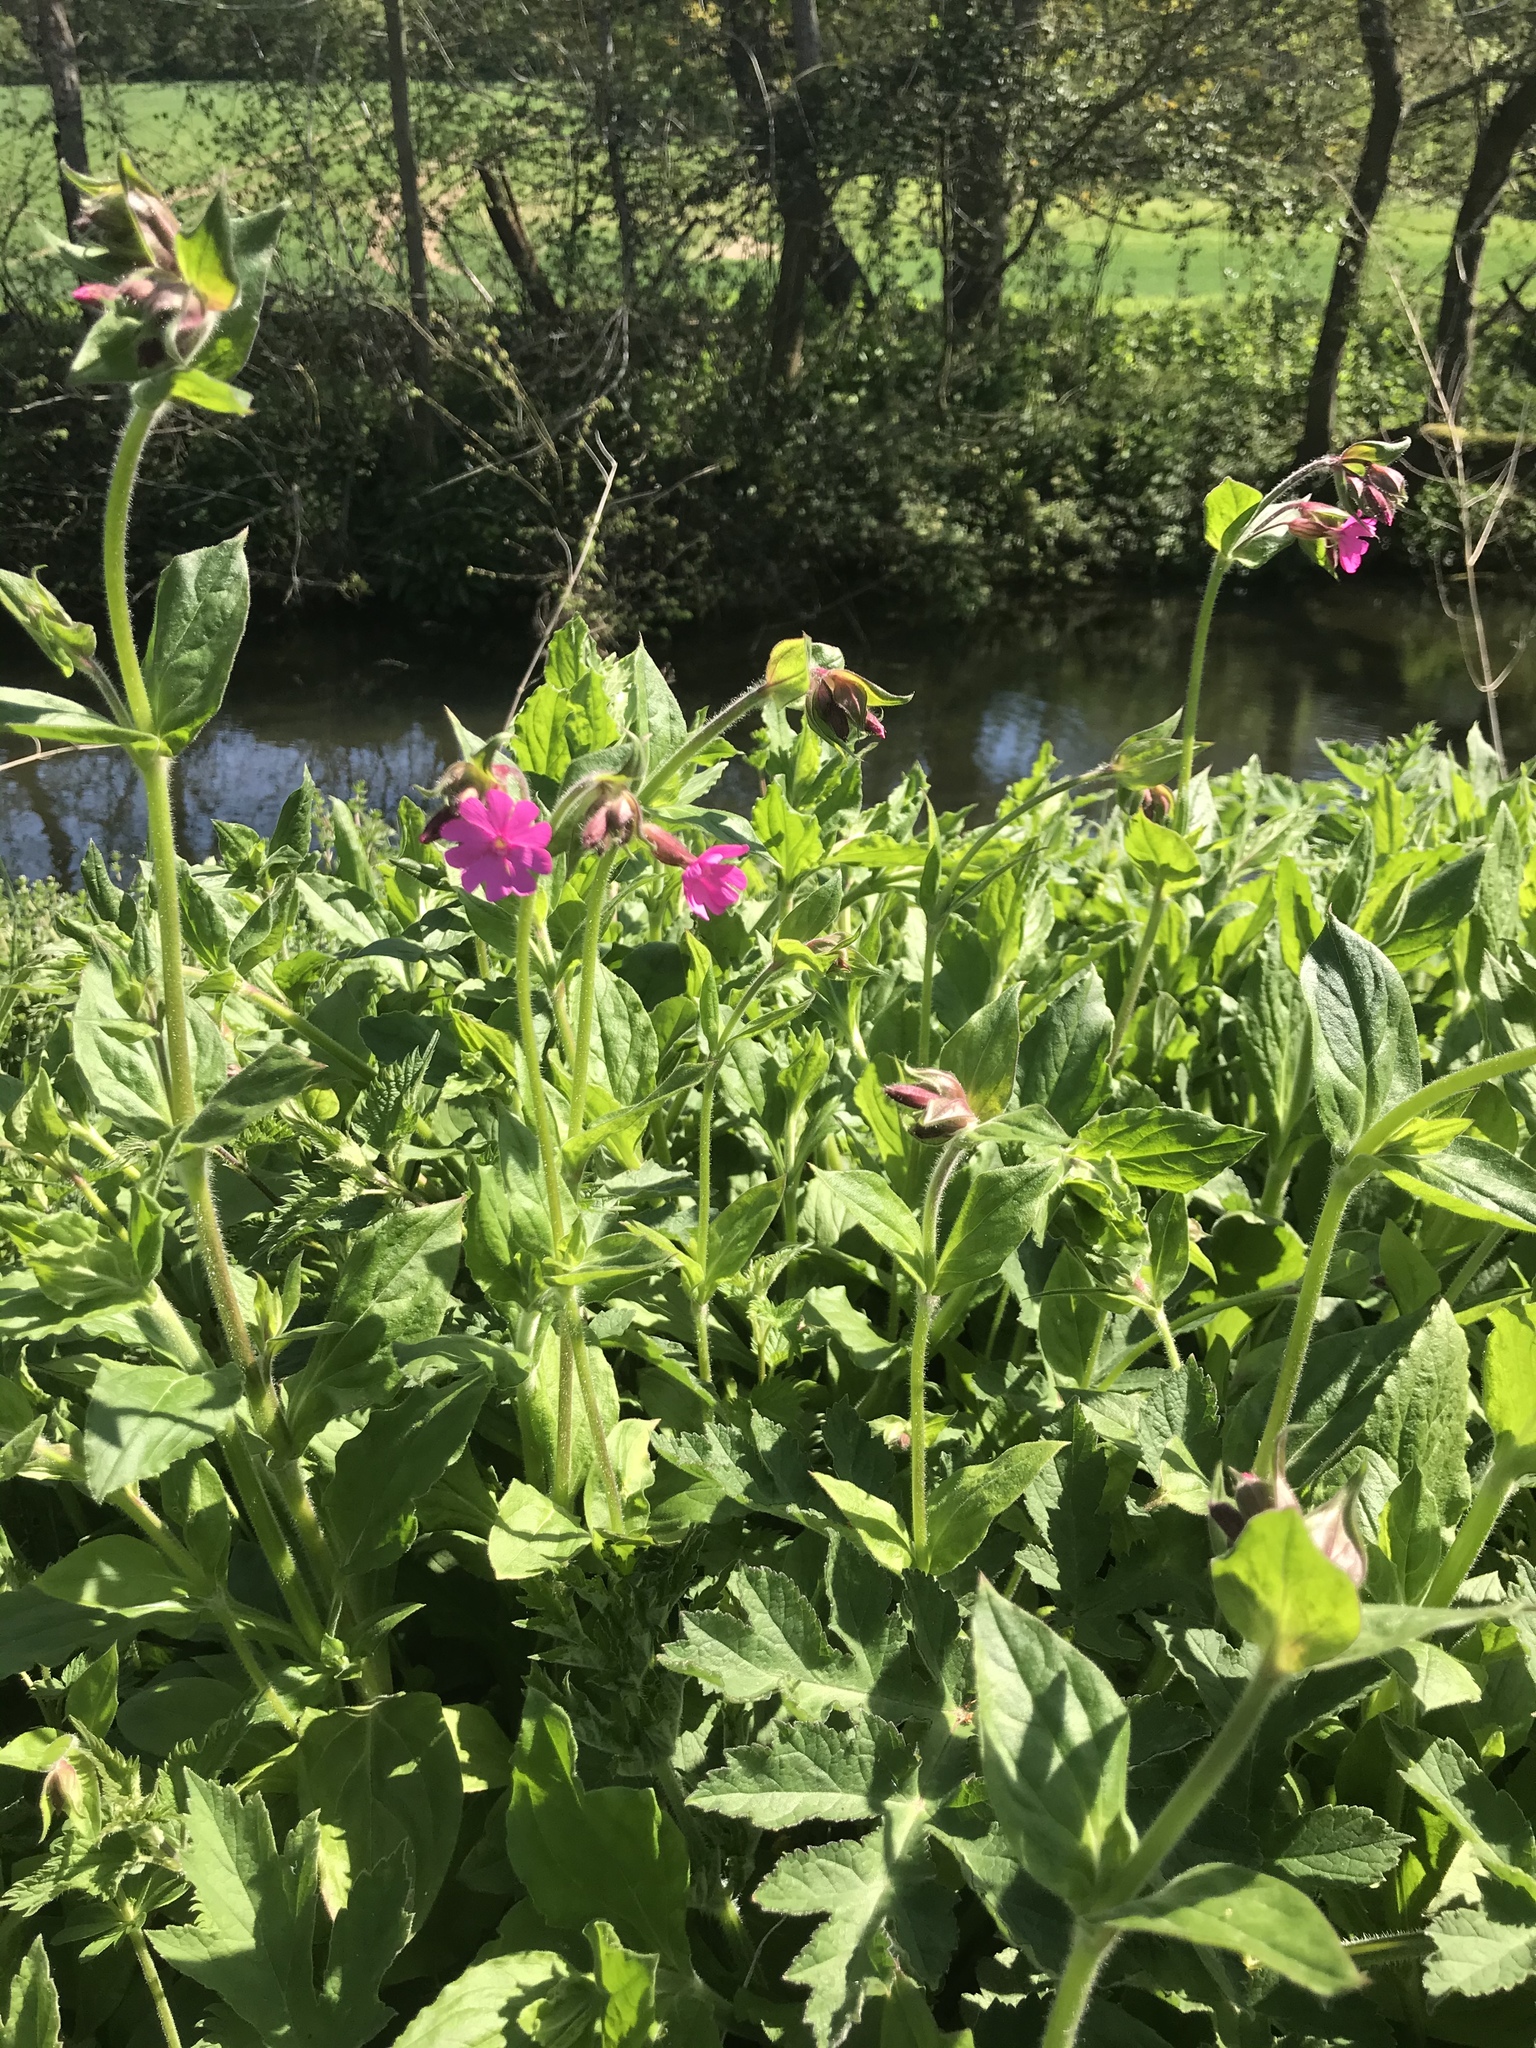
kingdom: Plantae
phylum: Tracheophyta
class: Magnoliopsida
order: Caryophyllales
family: Caryophyllaceae
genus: Silene
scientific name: Silene dioica
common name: Red campion
